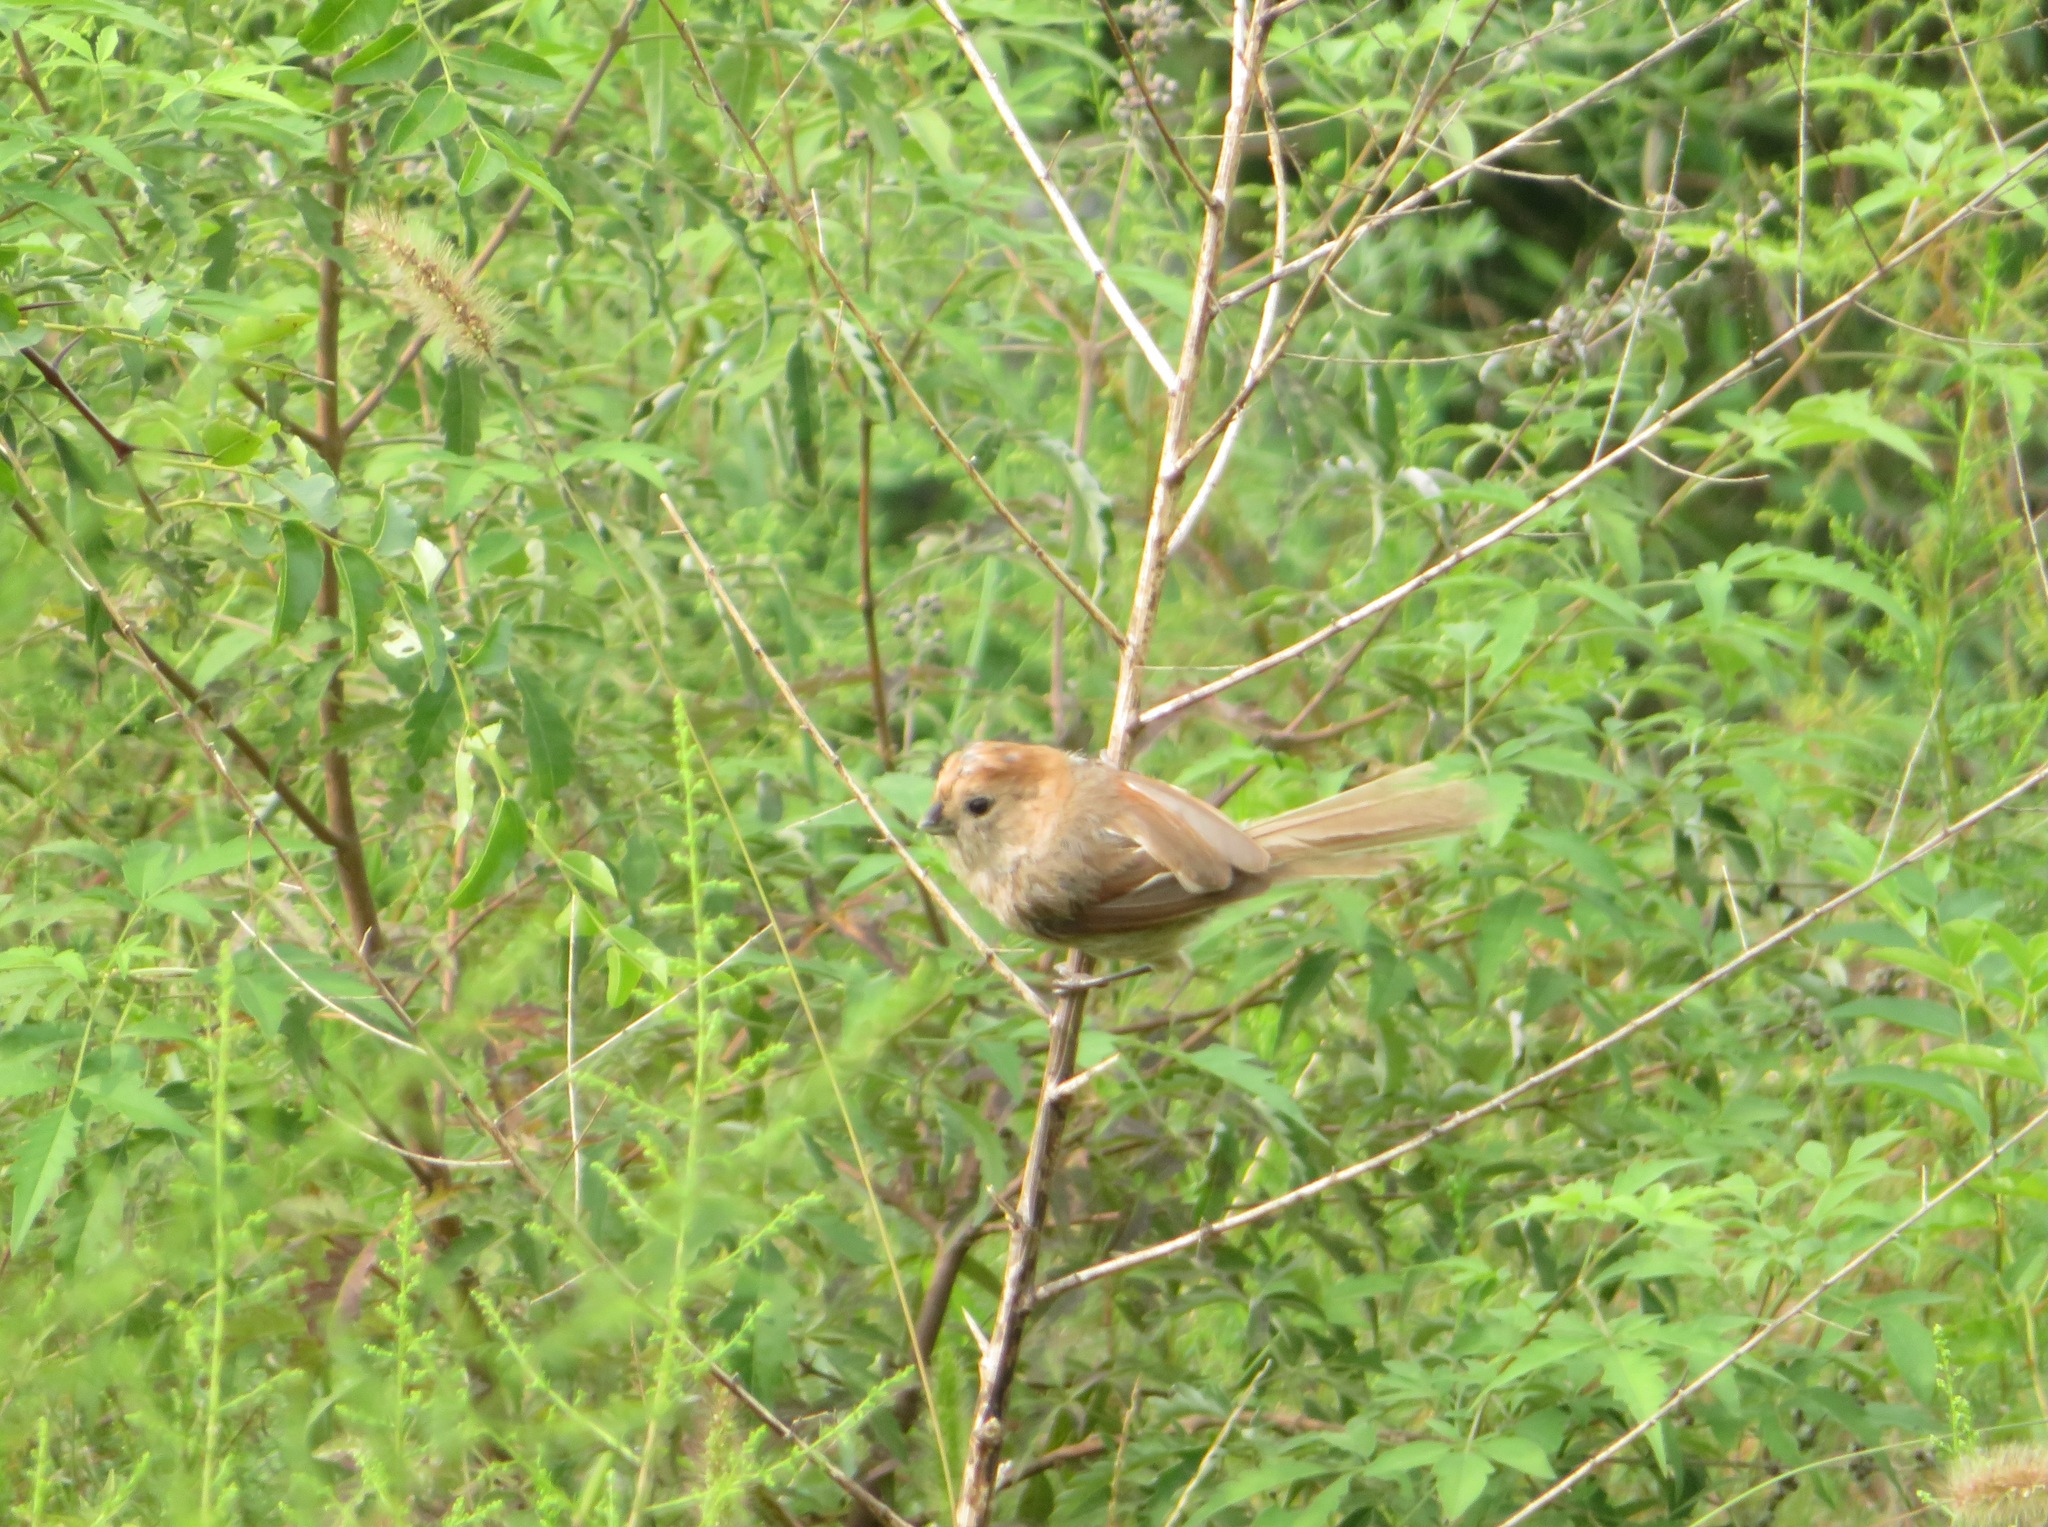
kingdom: Animalia
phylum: Chordata
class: Aves
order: Passeriformes
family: Sylviidae
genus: Sinosuthora
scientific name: Sinosuthora webbiana
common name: Vinous-throated parrotbill
